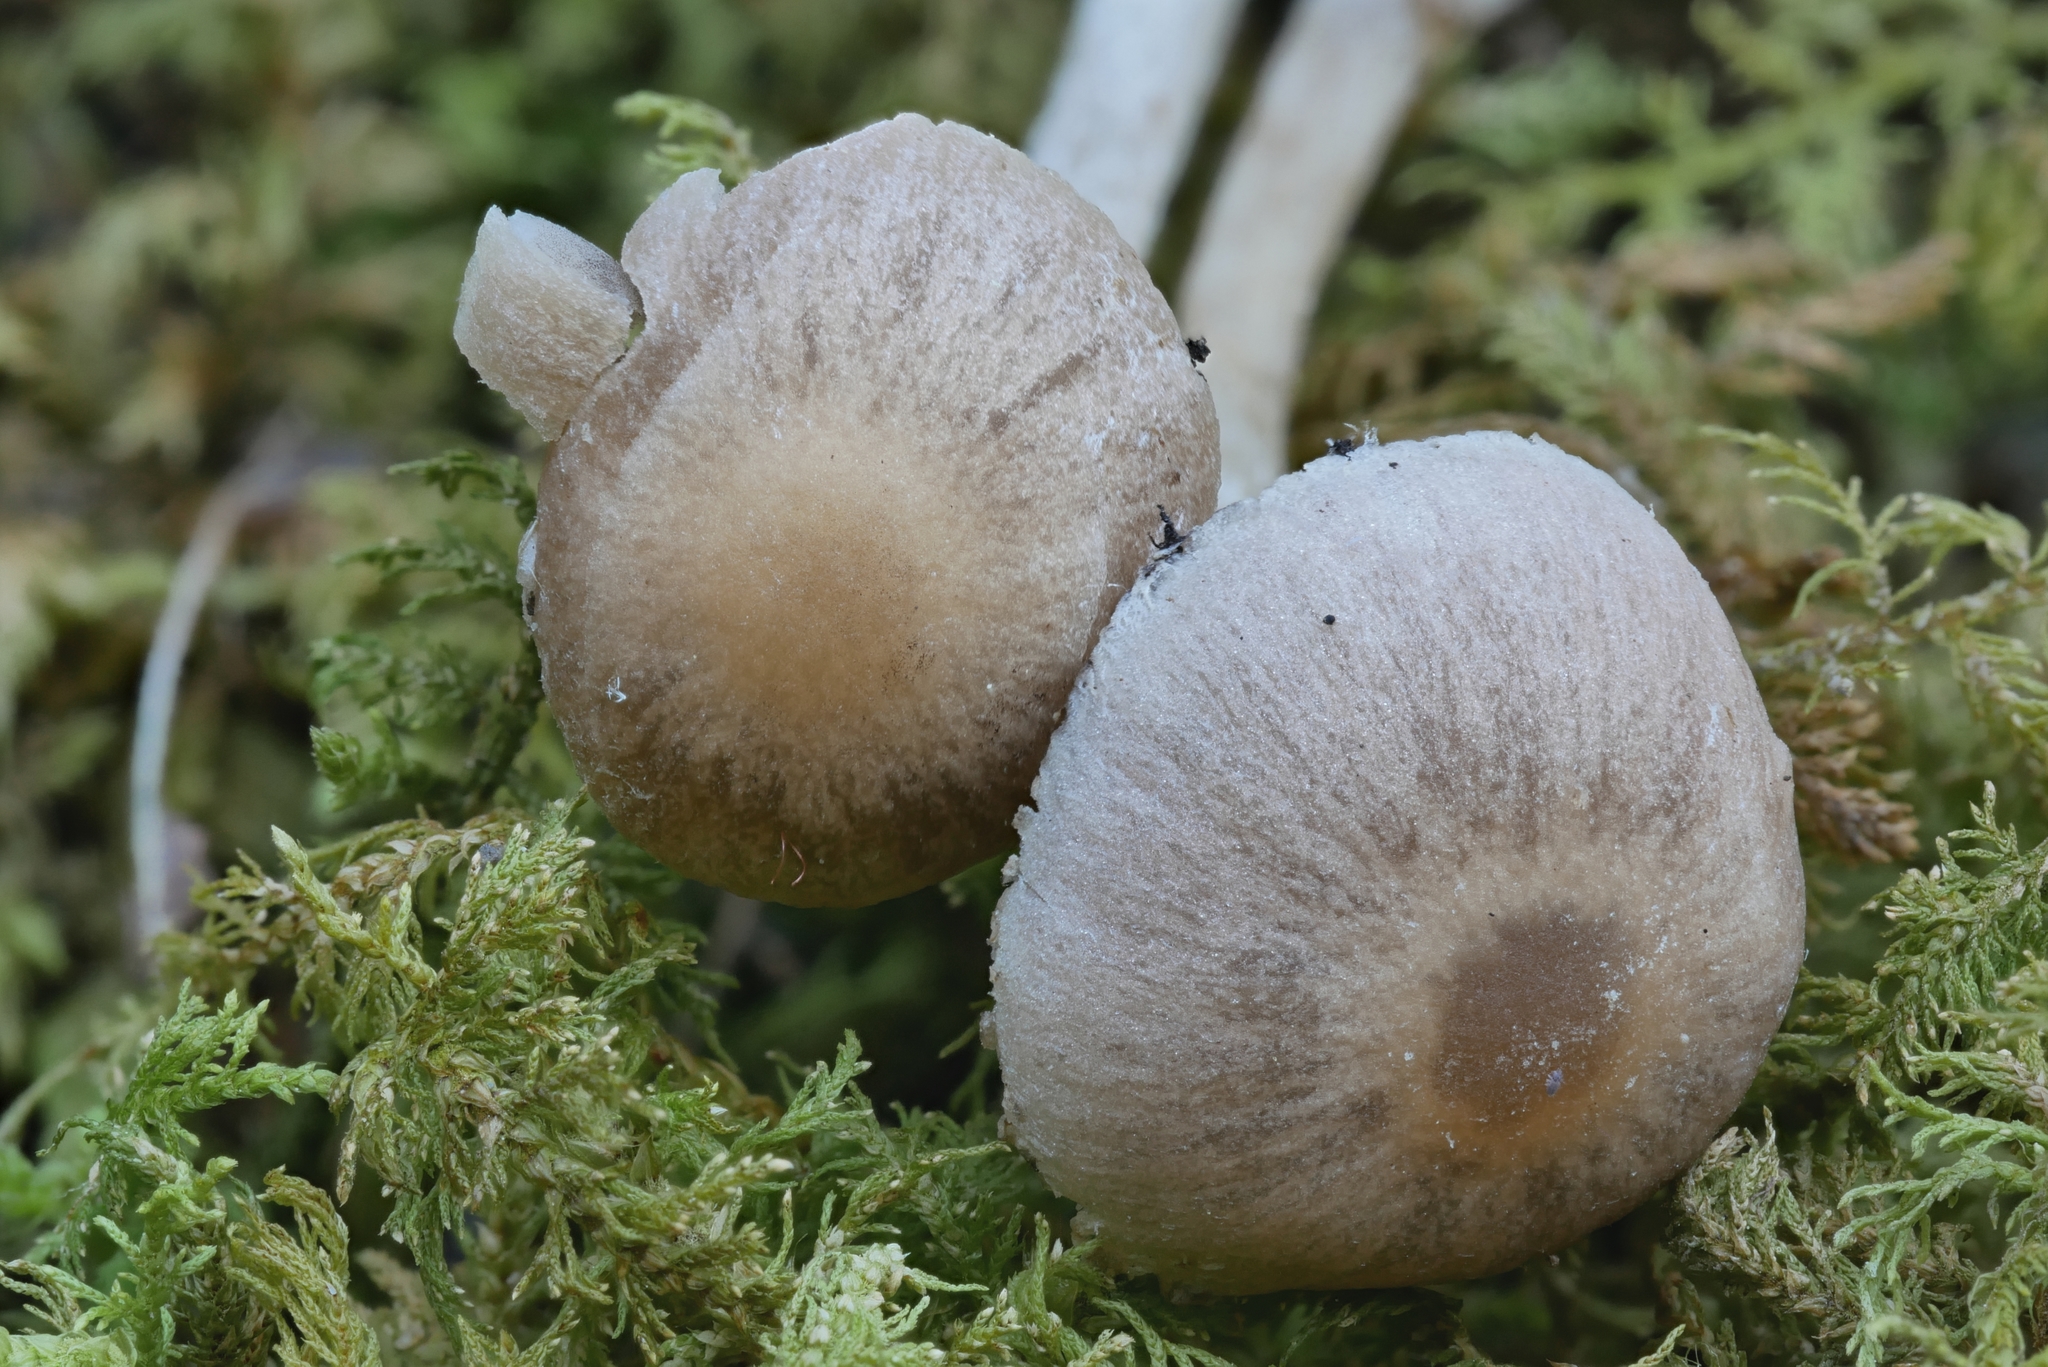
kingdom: Fungi
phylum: Basidiomycota
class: Agaricomycetes
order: Agaricales
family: Psathyrellaceae
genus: Psathyrella
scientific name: Psathyrella impexa
